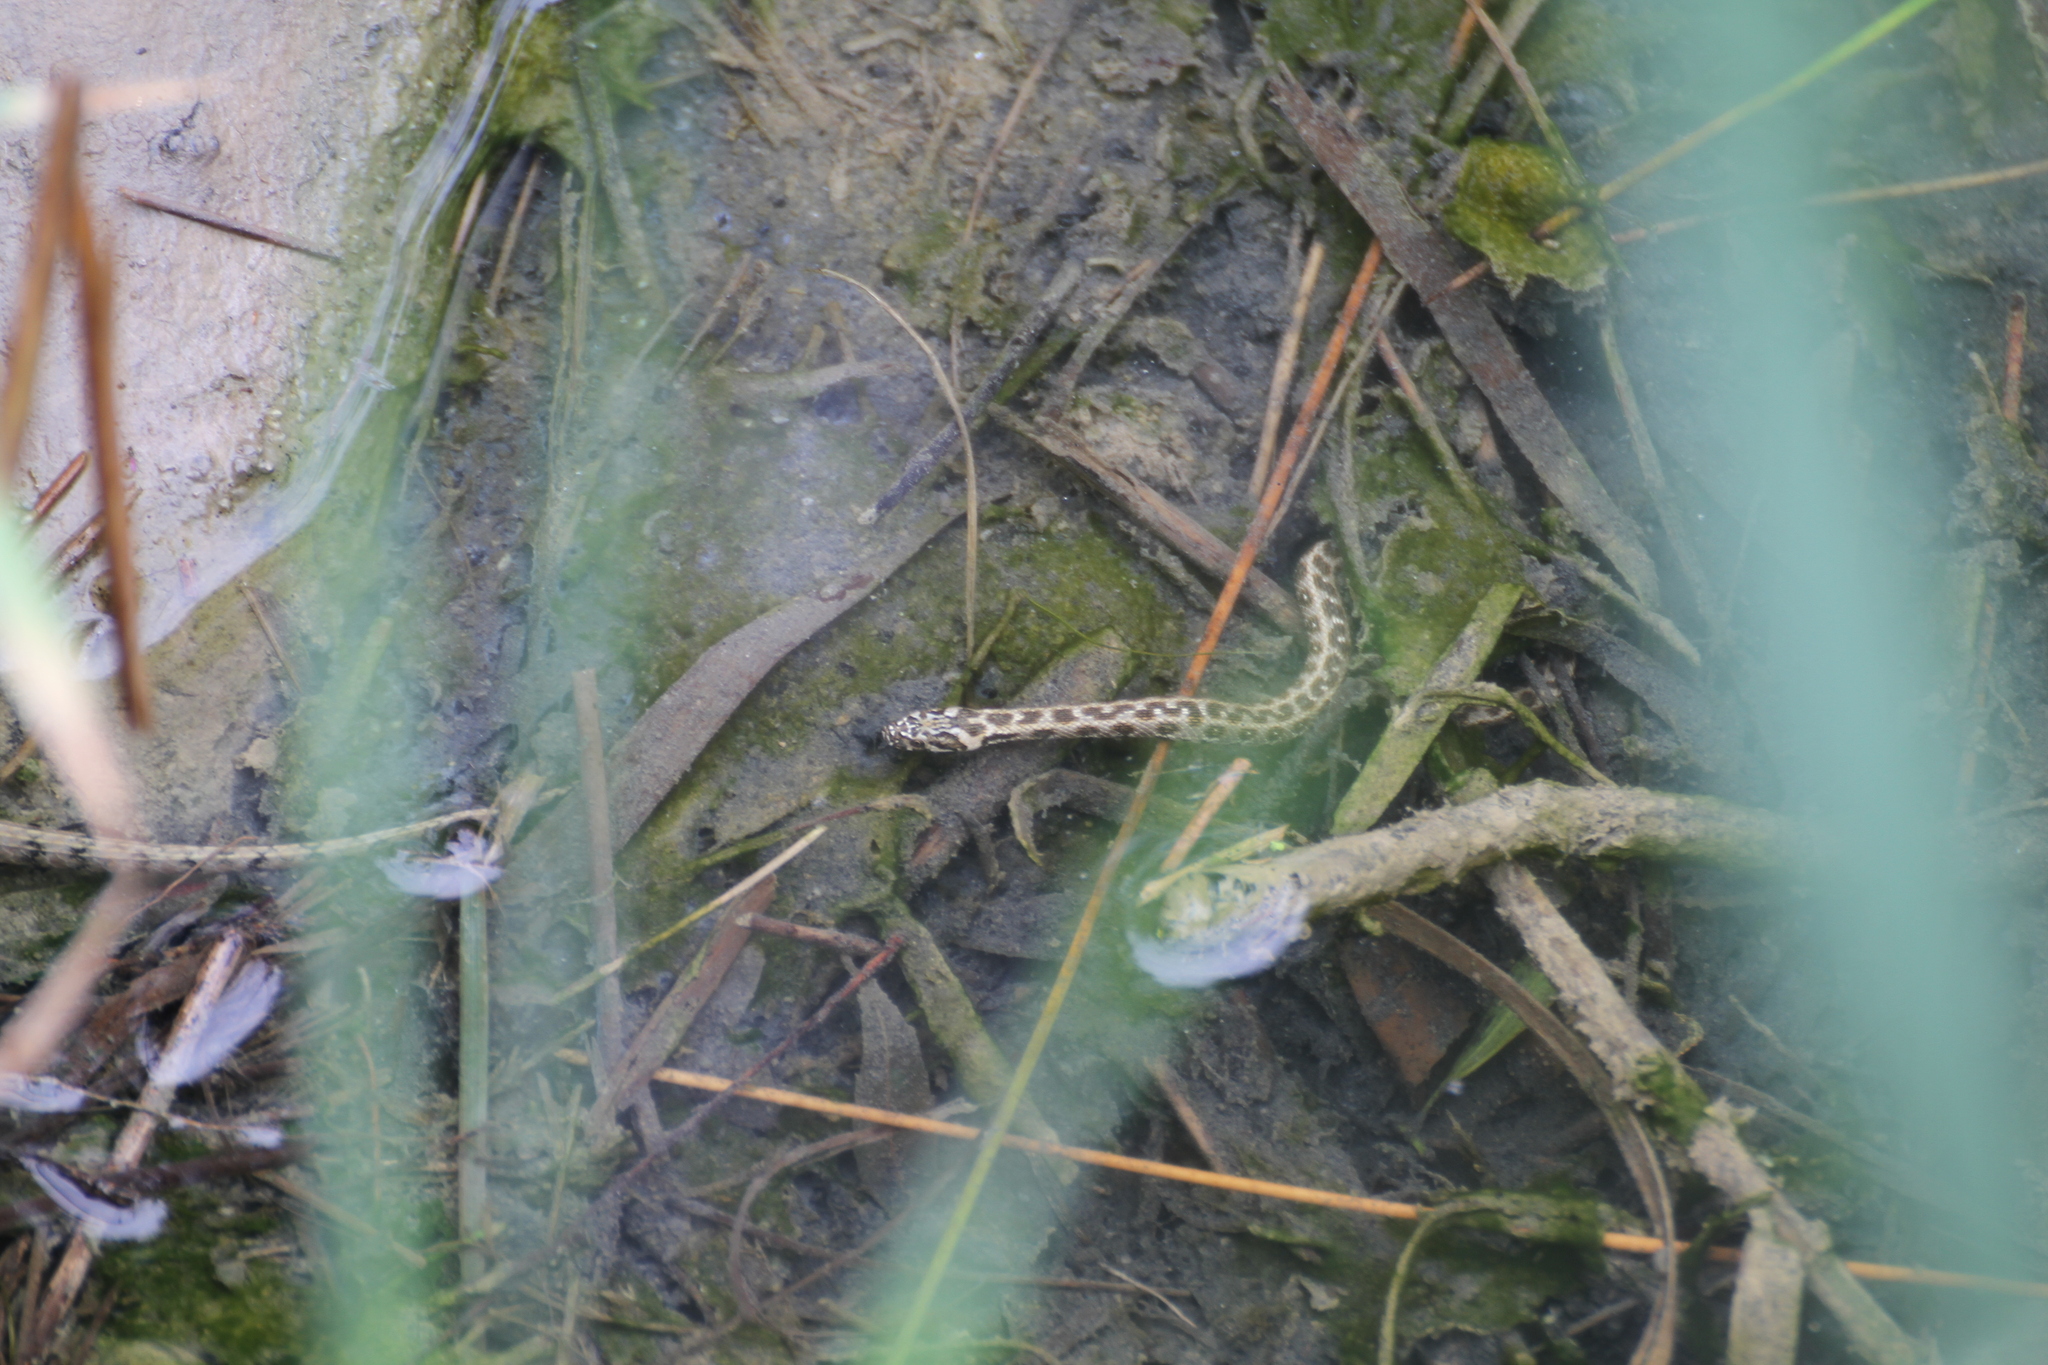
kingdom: Animalia
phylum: Chordata
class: Squamata
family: Colubridae
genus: Natrix
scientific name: Natrix maura
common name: Viperine water snake
